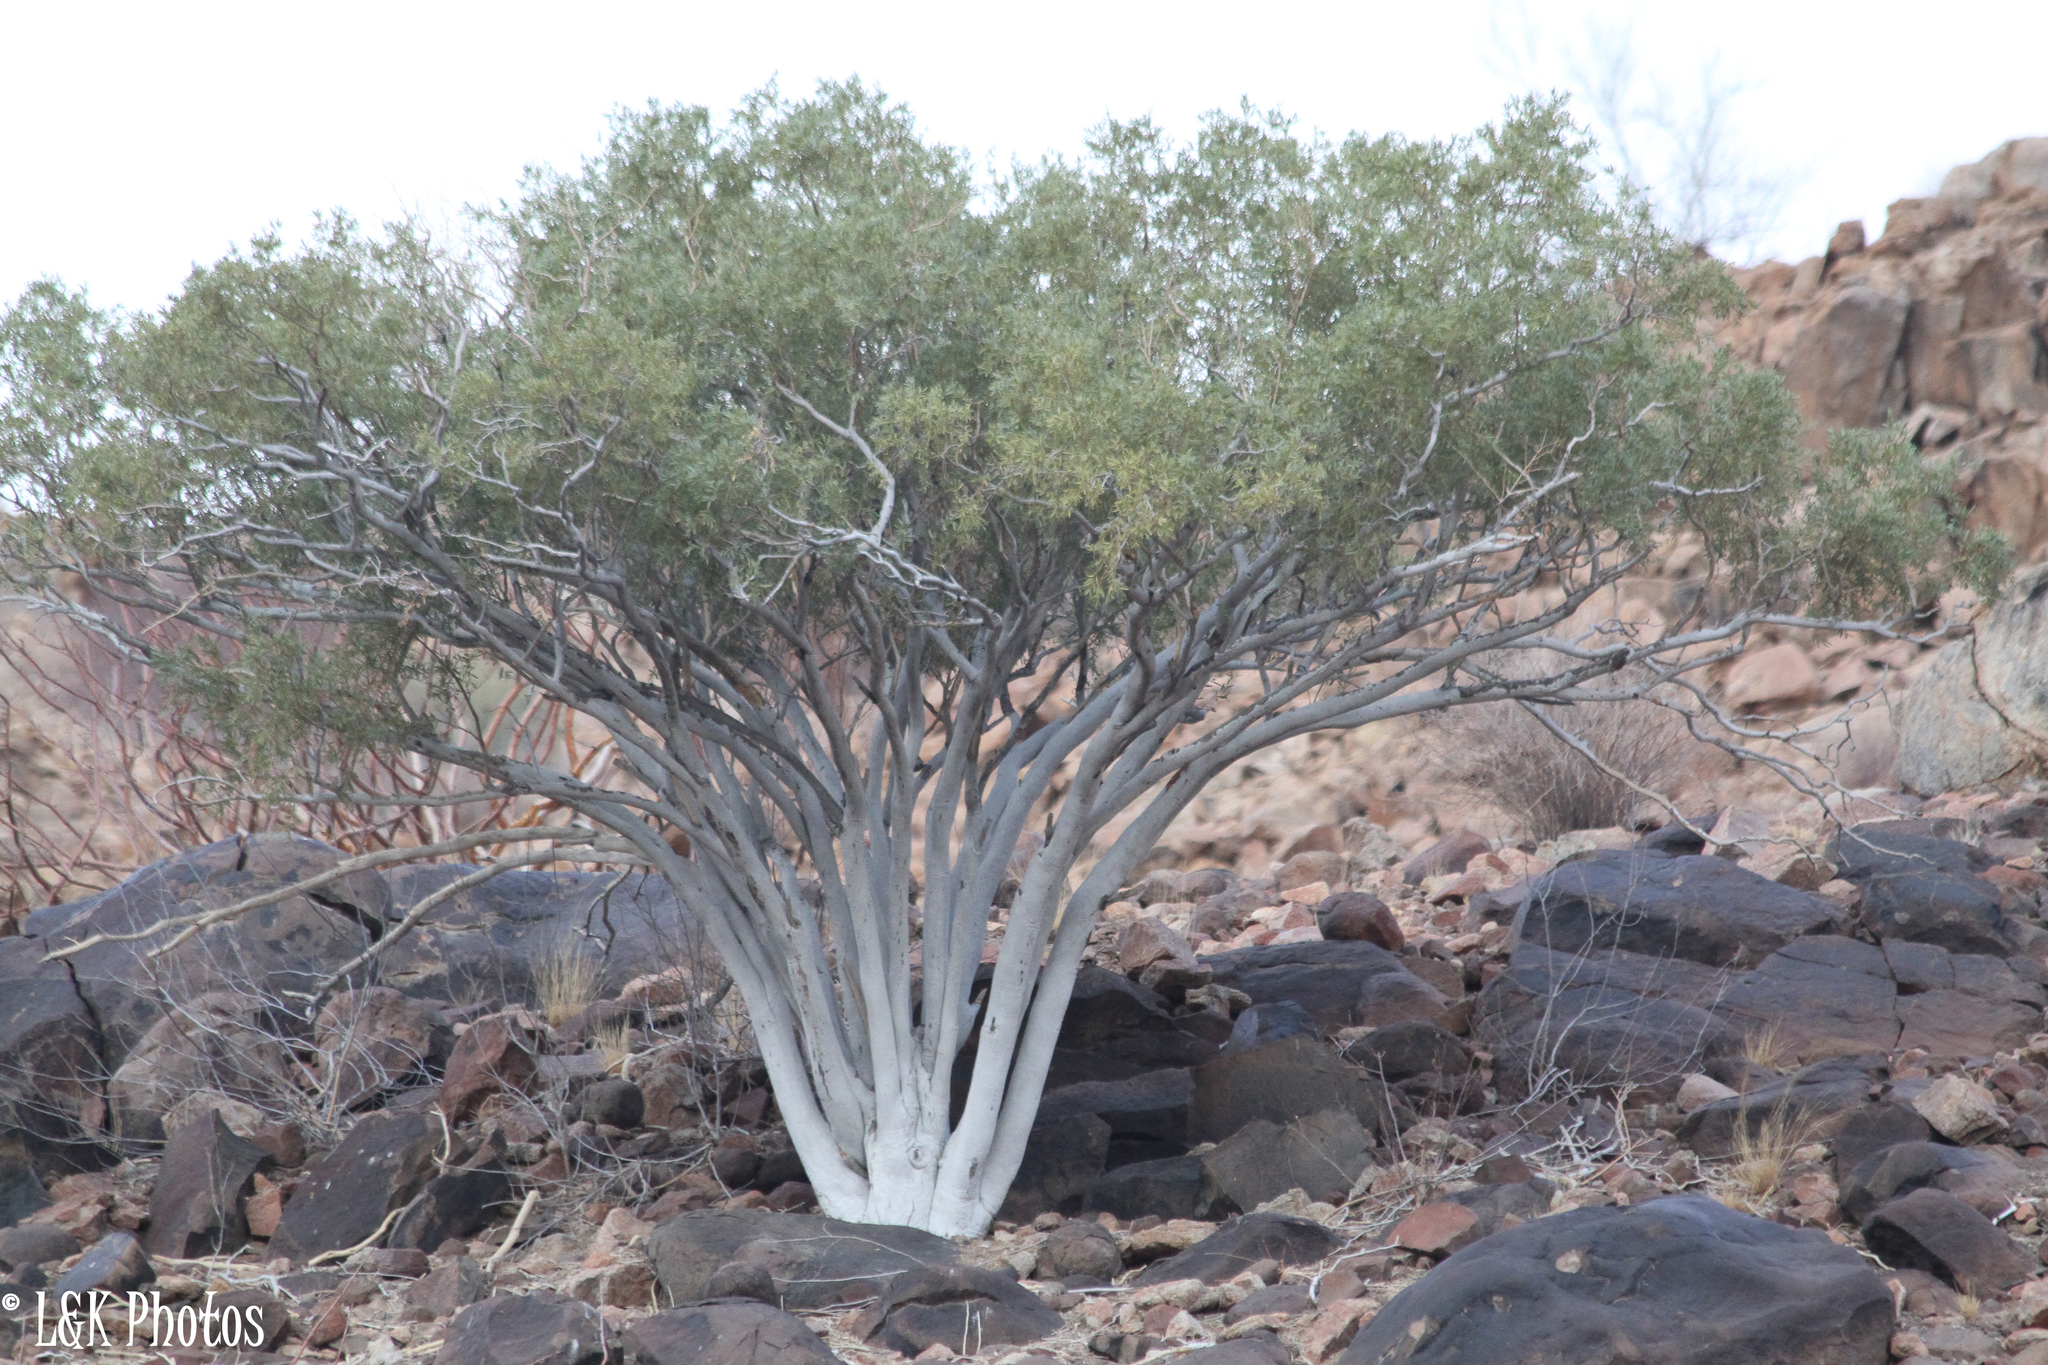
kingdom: Plantae
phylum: Tracheophyta
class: Magnoliopsida
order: Brassicales
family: Capparaceae
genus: Boscia
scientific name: Boscia albitrunca
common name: Caper bush
